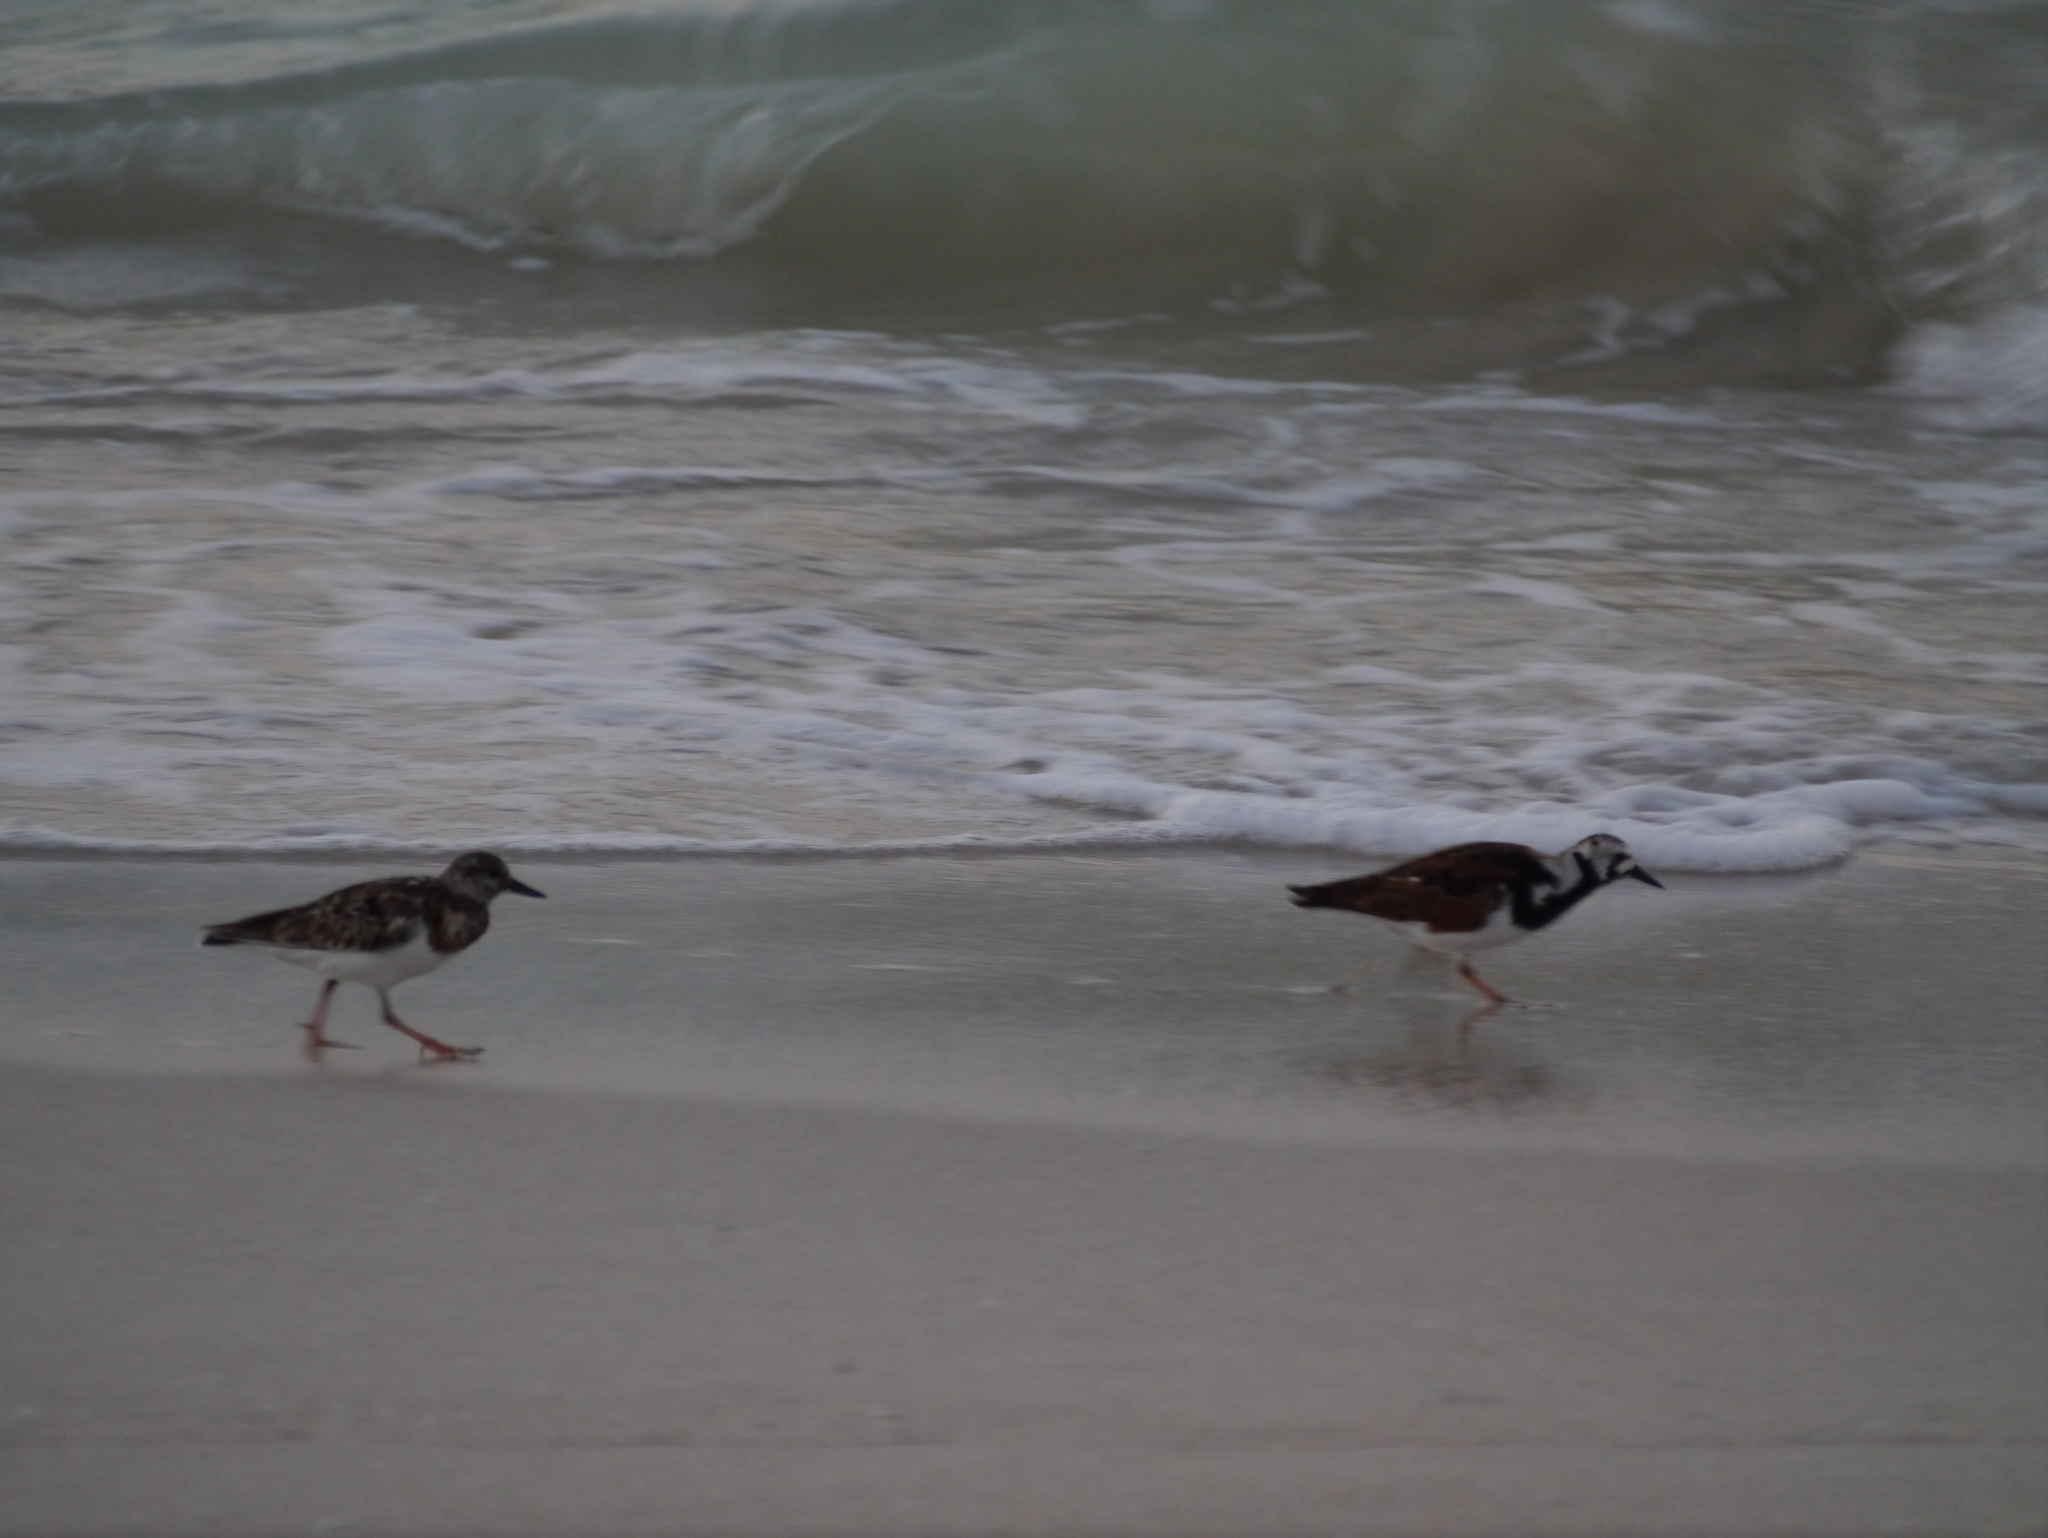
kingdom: Animalia
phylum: Chordata
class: Aves
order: Charadriiformes
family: Scolopacidae
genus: Arenaria
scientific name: Arenaria interpres
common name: Ruddy turnstone
